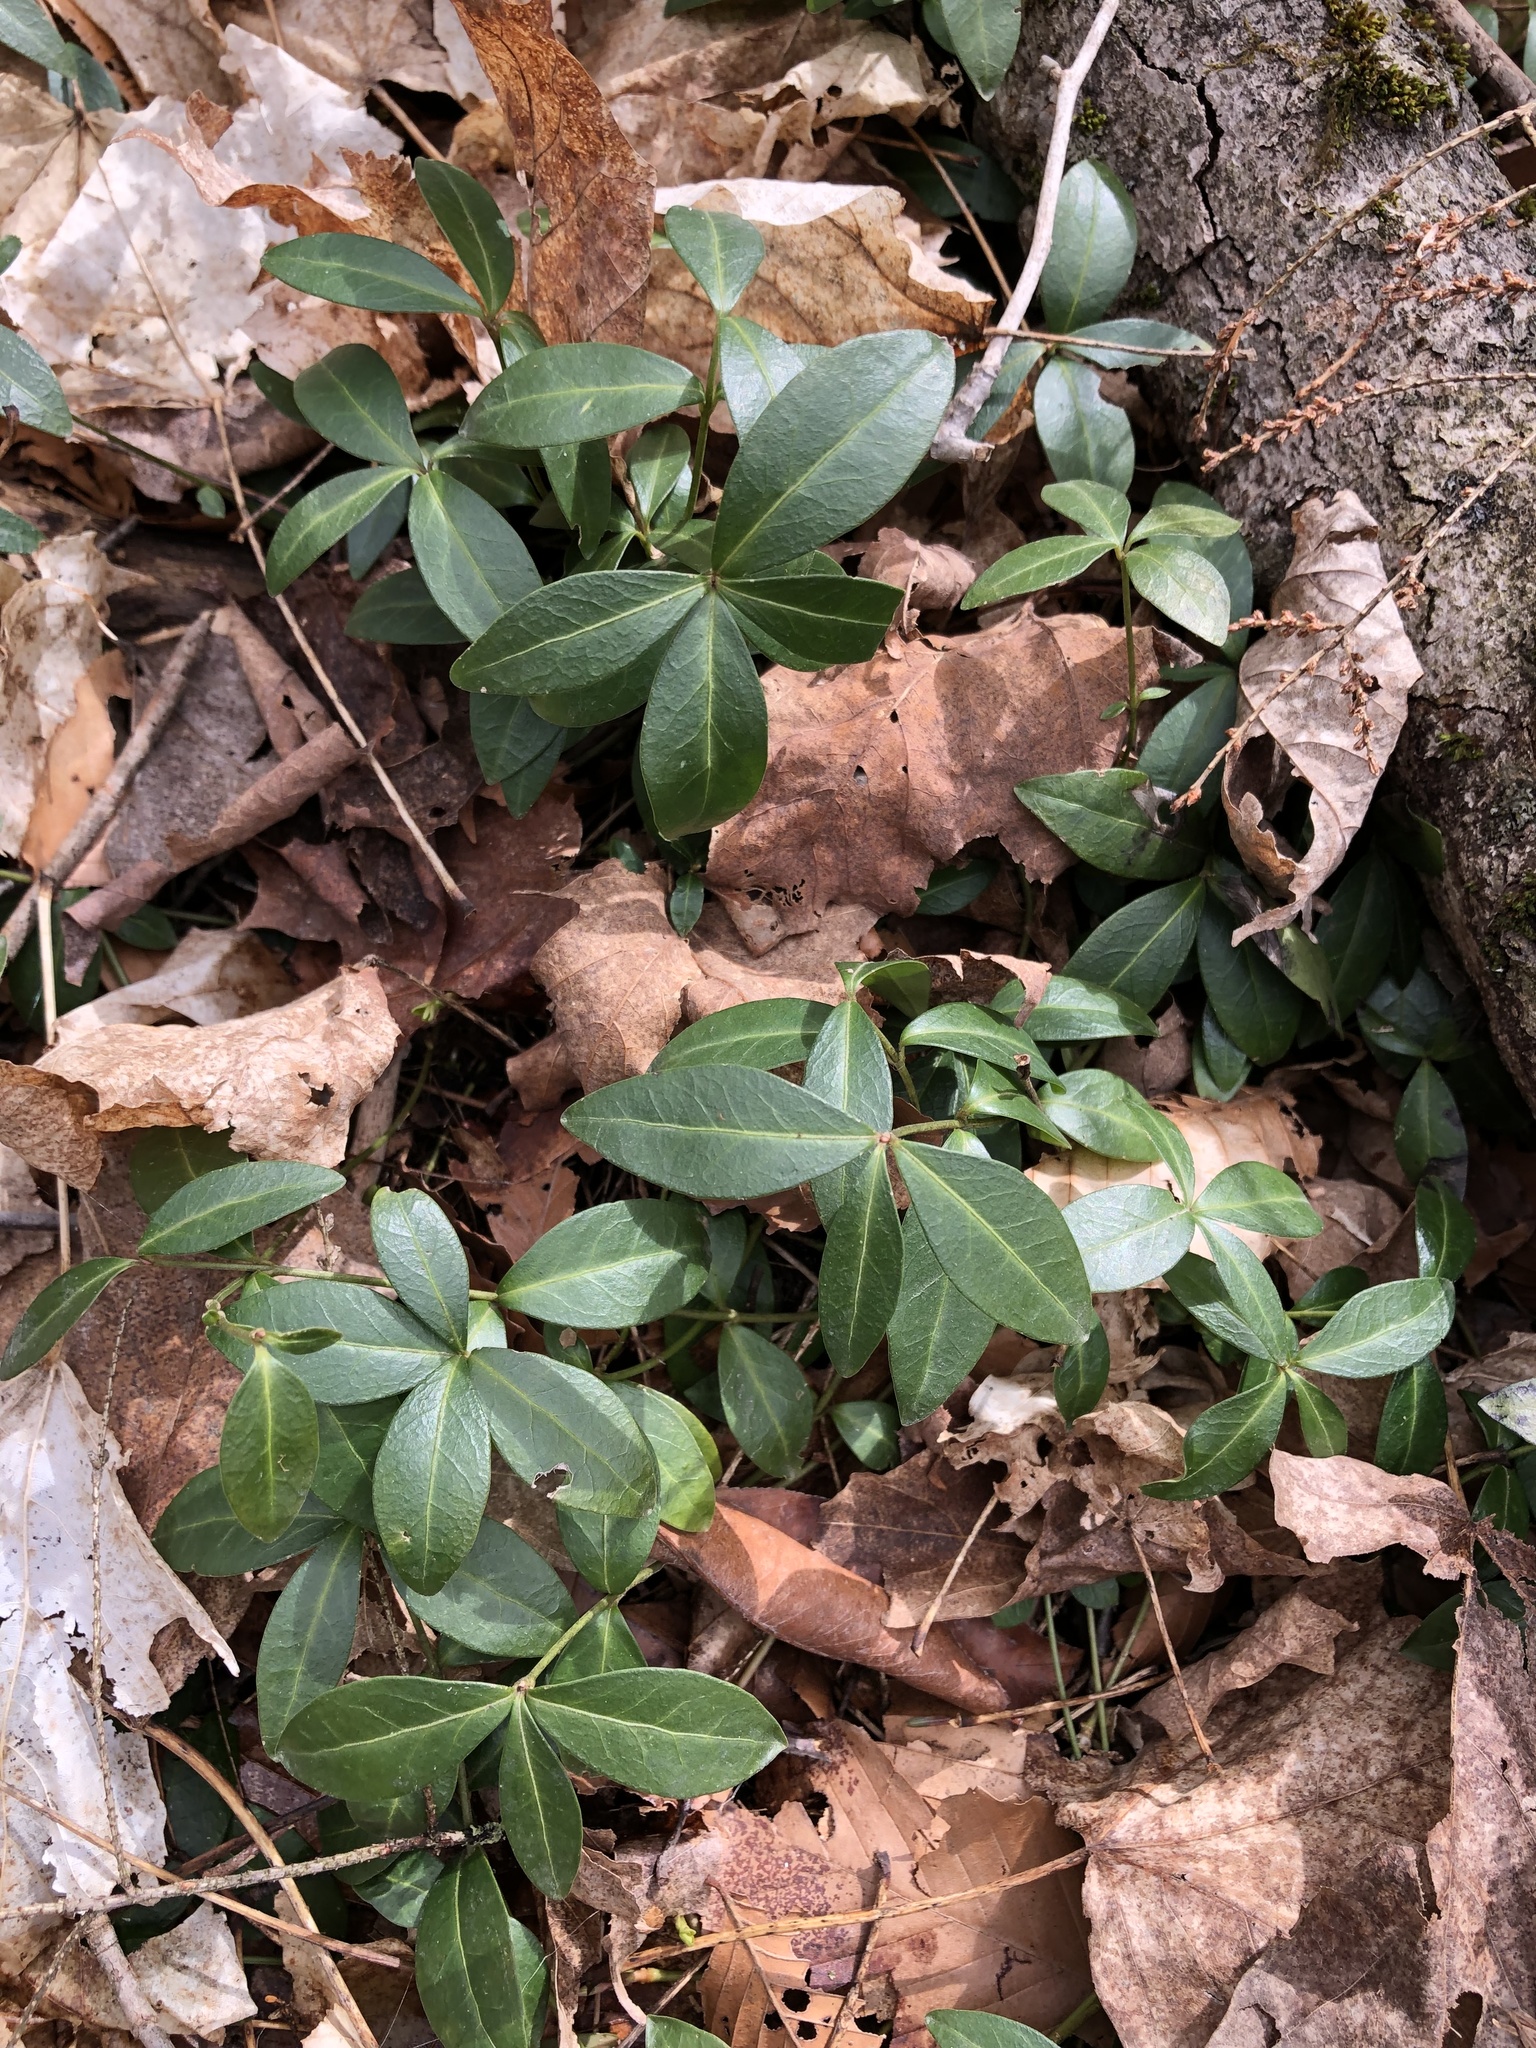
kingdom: Plantae
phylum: Tracheophyta
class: Magnoliopsida
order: Gentianales
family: Apocynaceae
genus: Vinca
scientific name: Vinca minor
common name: Lesser periwinkle
